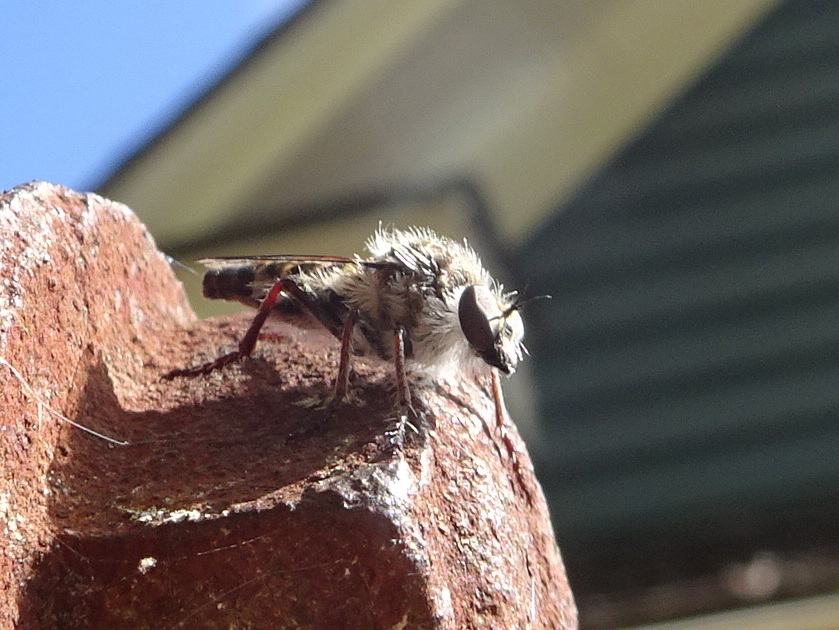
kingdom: Animalia
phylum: Arthropoda
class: Insecta
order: Diptera
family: Asilidae
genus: Heteropogon
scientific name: Heteropogon macerinus
